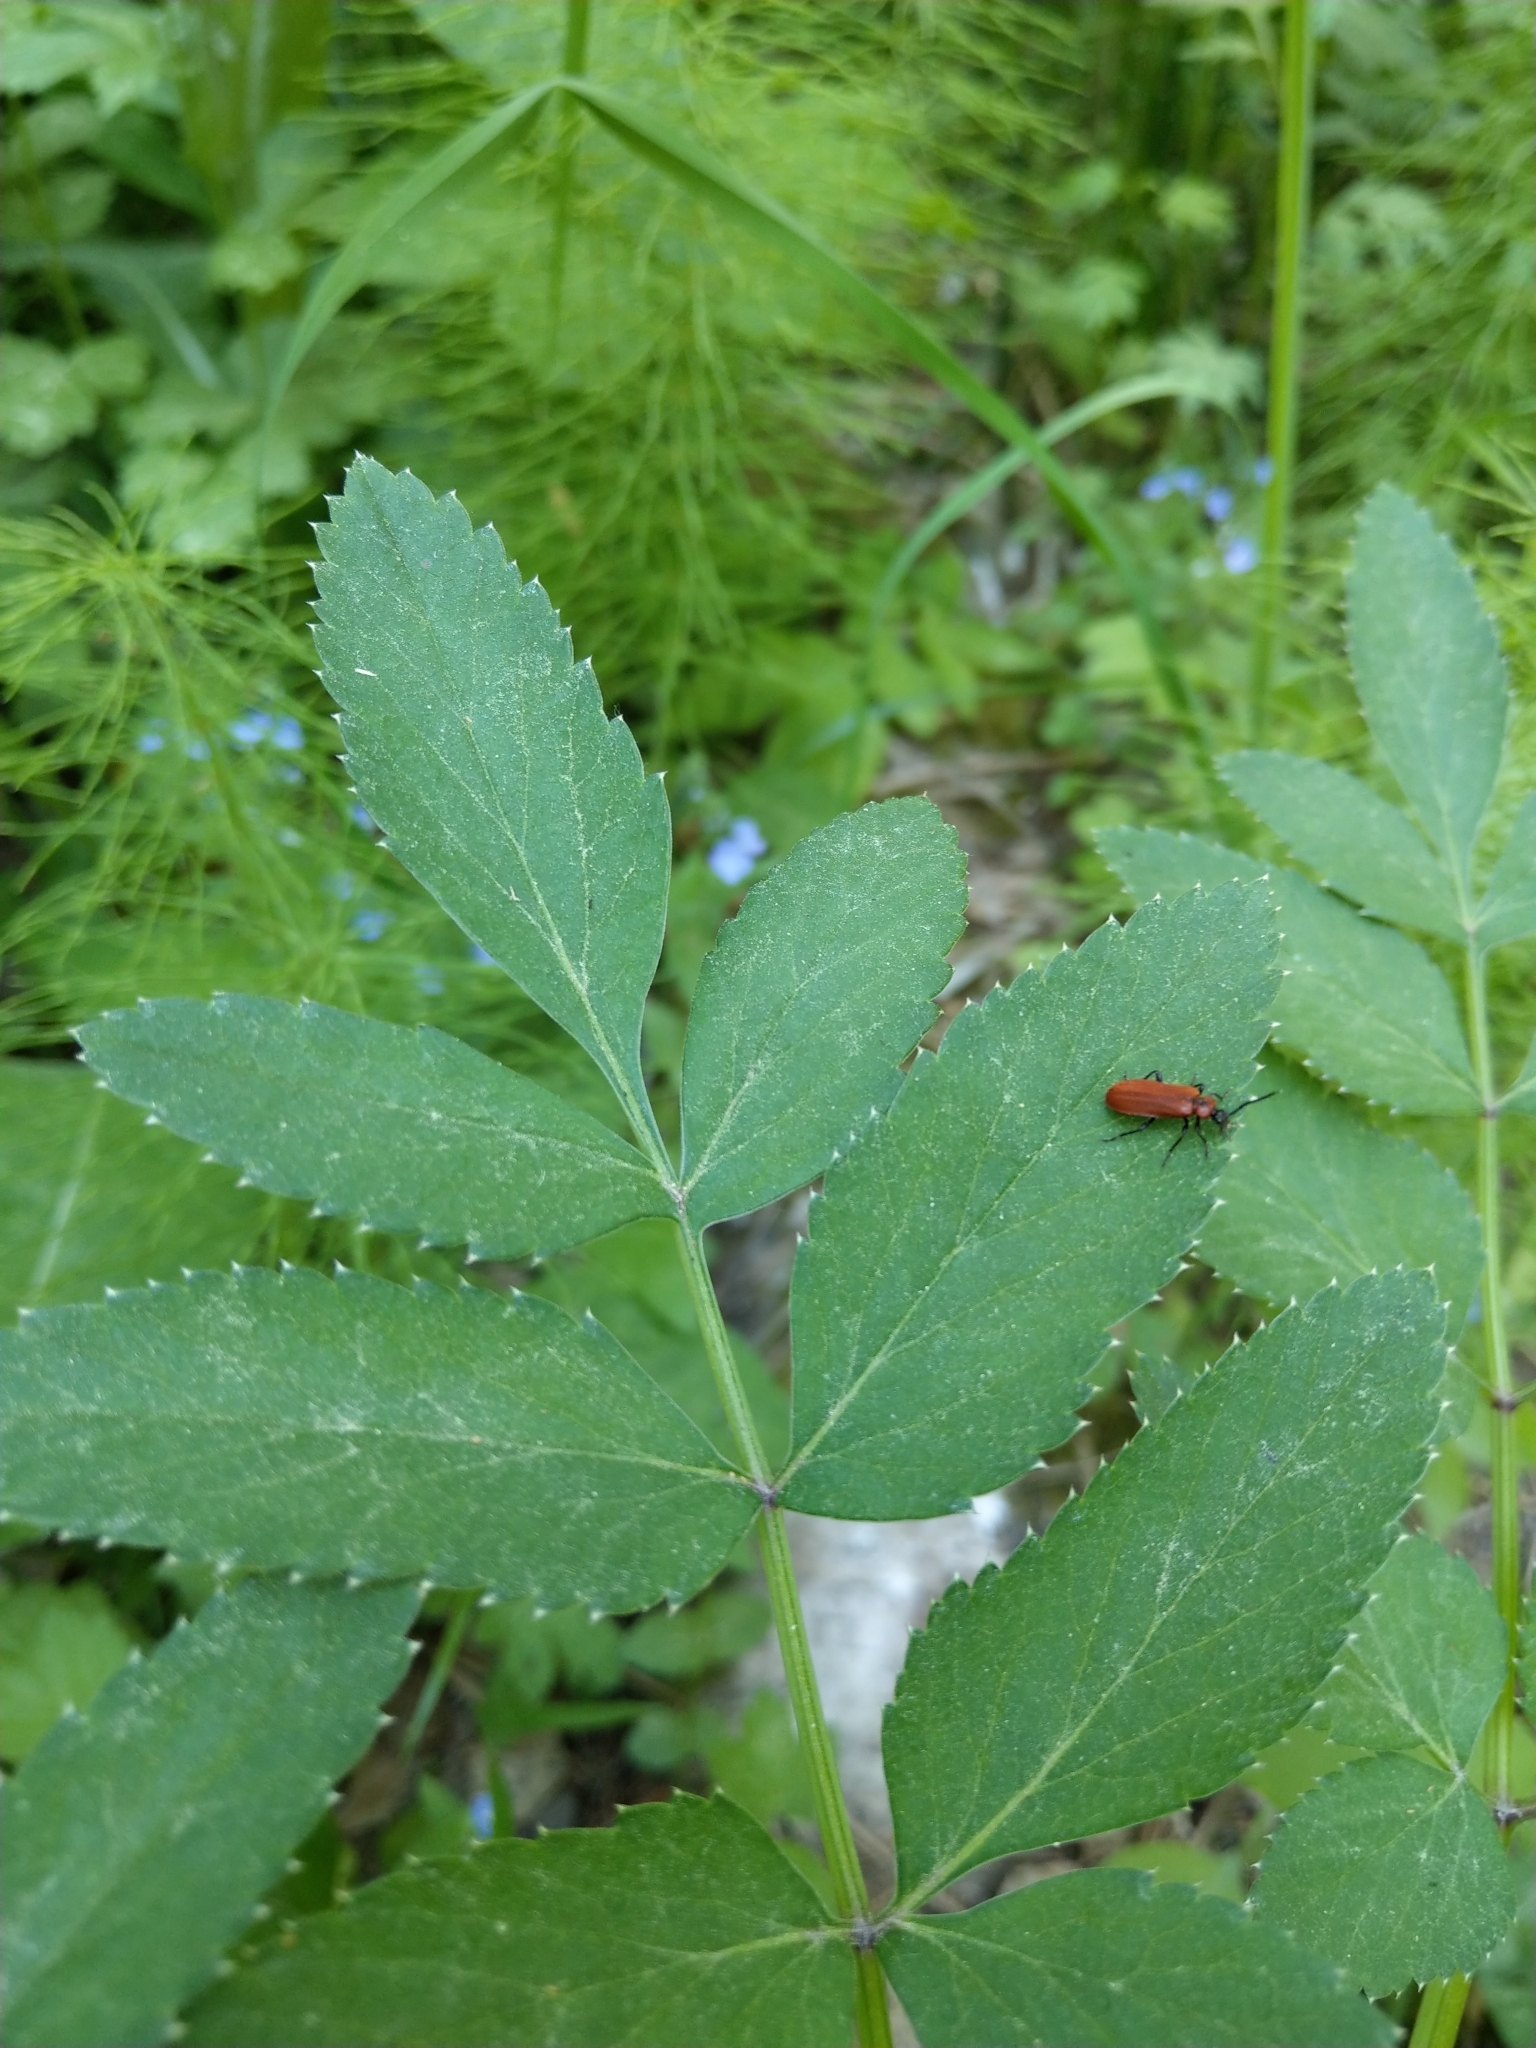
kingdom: Animalia
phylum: Arthropoda
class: Insecta
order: Coleoptera
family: Pyrochroidae
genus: Schizotus
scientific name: Schizotus pectinicornis
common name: Scarce cardinal beetle
